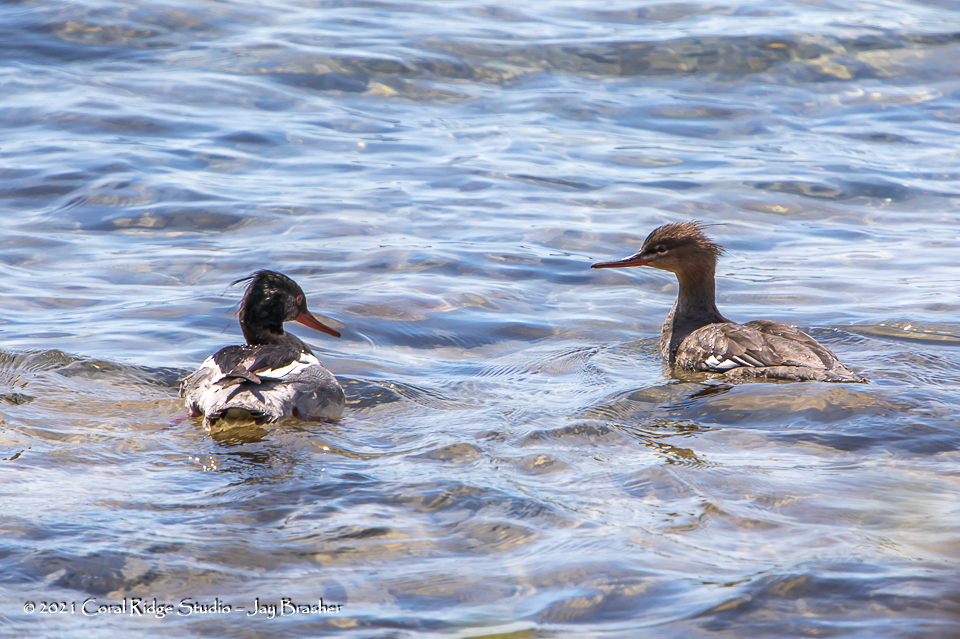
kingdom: Animalia
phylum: Chordata
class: Aves
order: Anseriformes
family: Anatidae
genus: Mergus
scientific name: Mergus serrator
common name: Red-breasted merganser
